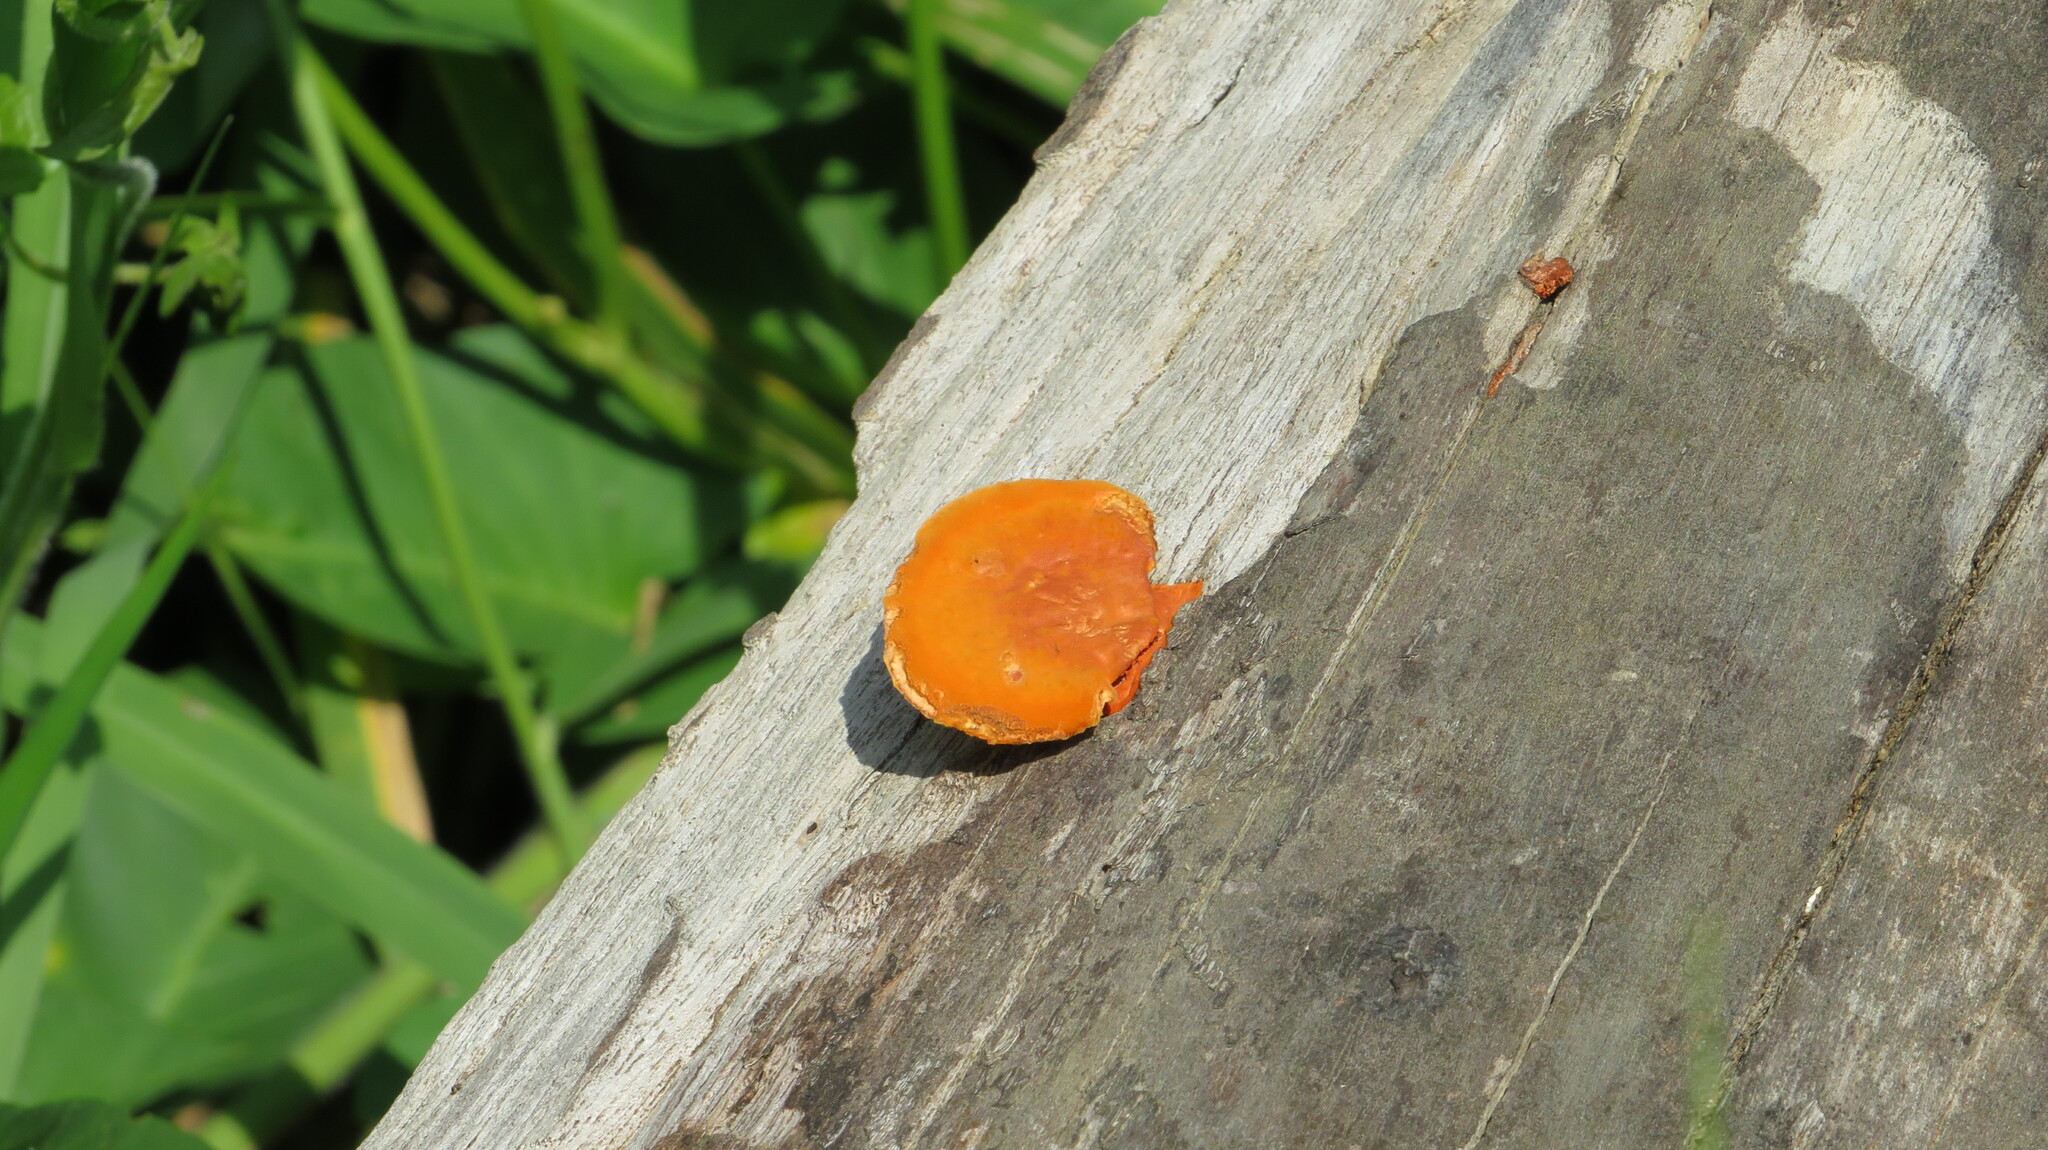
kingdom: Fungi
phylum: Basidiomycota
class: Agaricomycetes
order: Polyporales
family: Polyporaceae
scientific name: Polyporaceae
